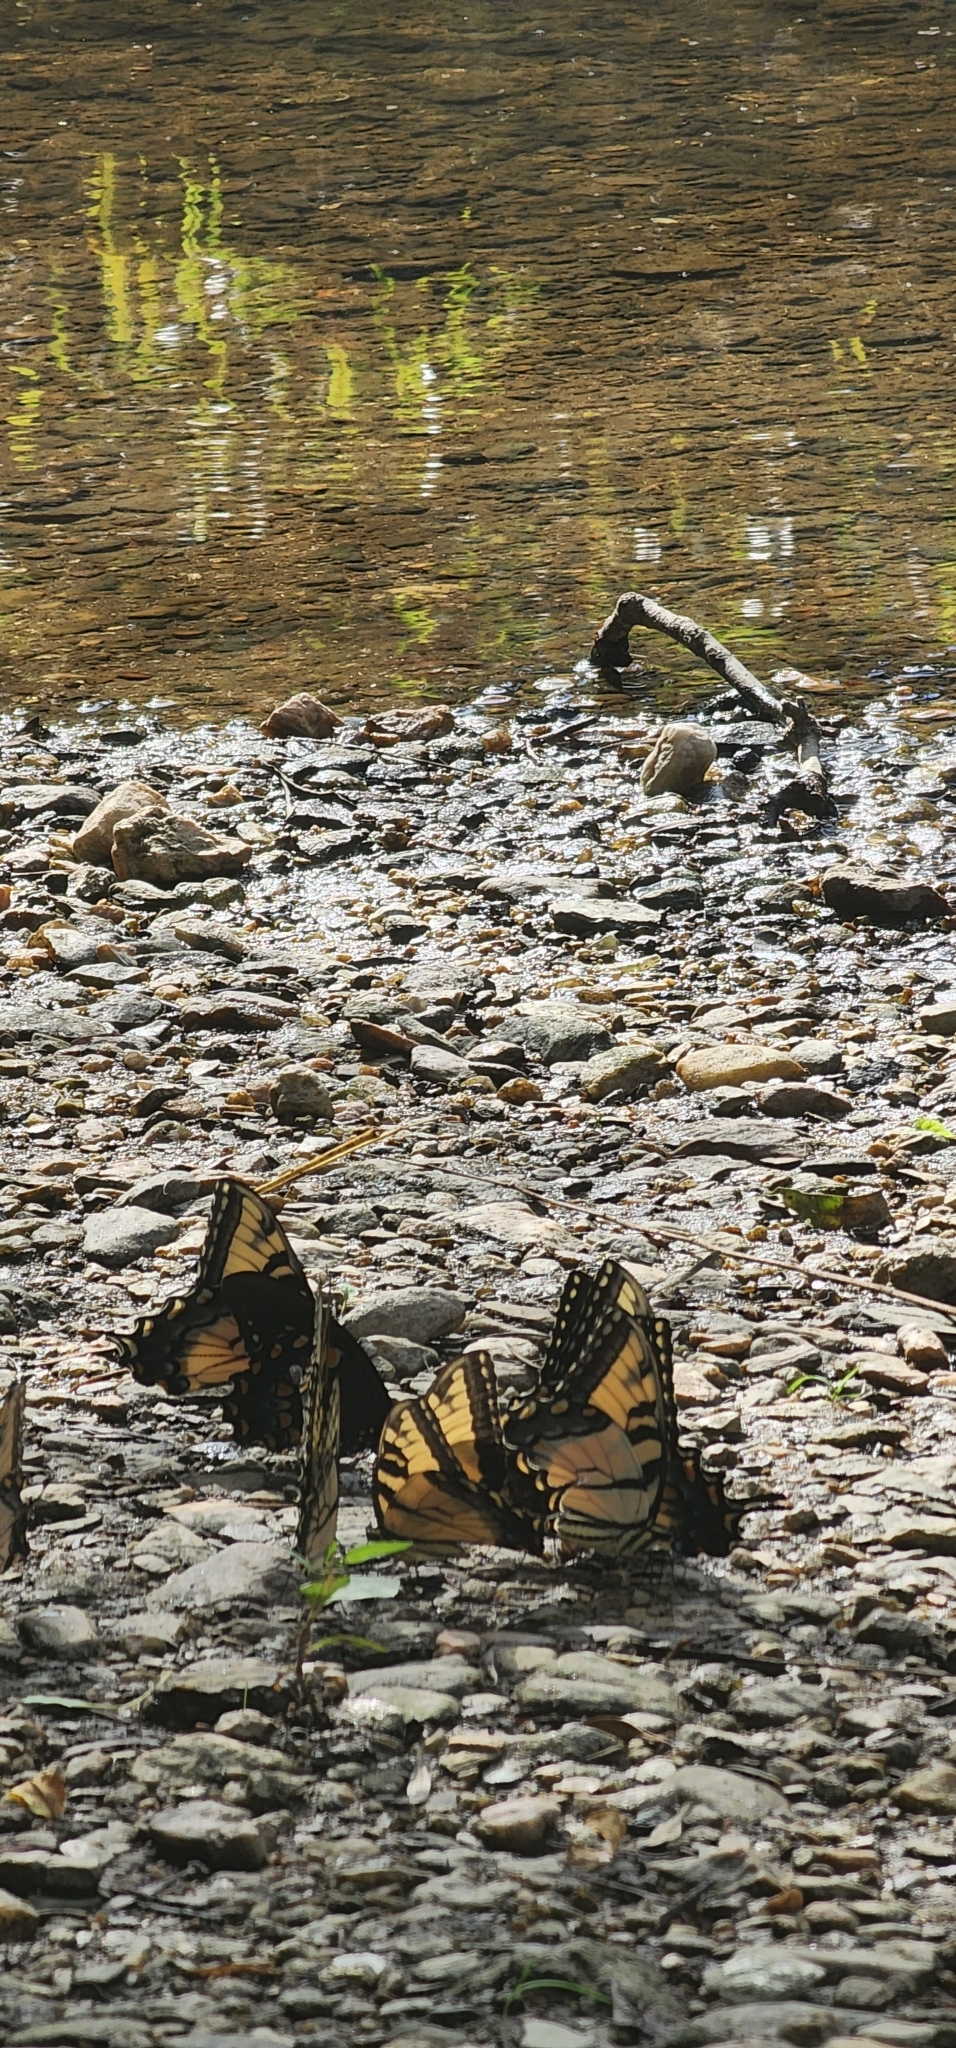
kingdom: Animalia
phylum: Arthropoda
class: Insecta
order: Lepidoptera
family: Papilionidae
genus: Papilio
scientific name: Papilio glaucus
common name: Tiger swallowtail
